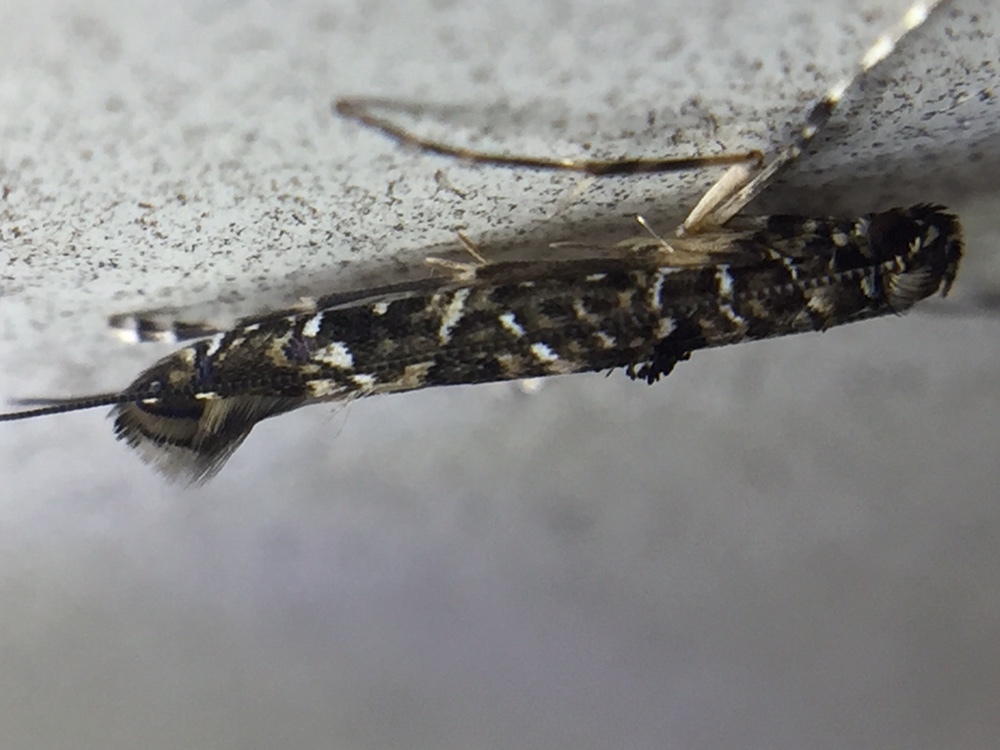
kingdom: Animalia
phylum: Arthropoda
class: Insecta
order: Lepidoptera
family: Gracillariidae
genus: Conopomorpha
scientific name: Conopomorpha cyanospila
